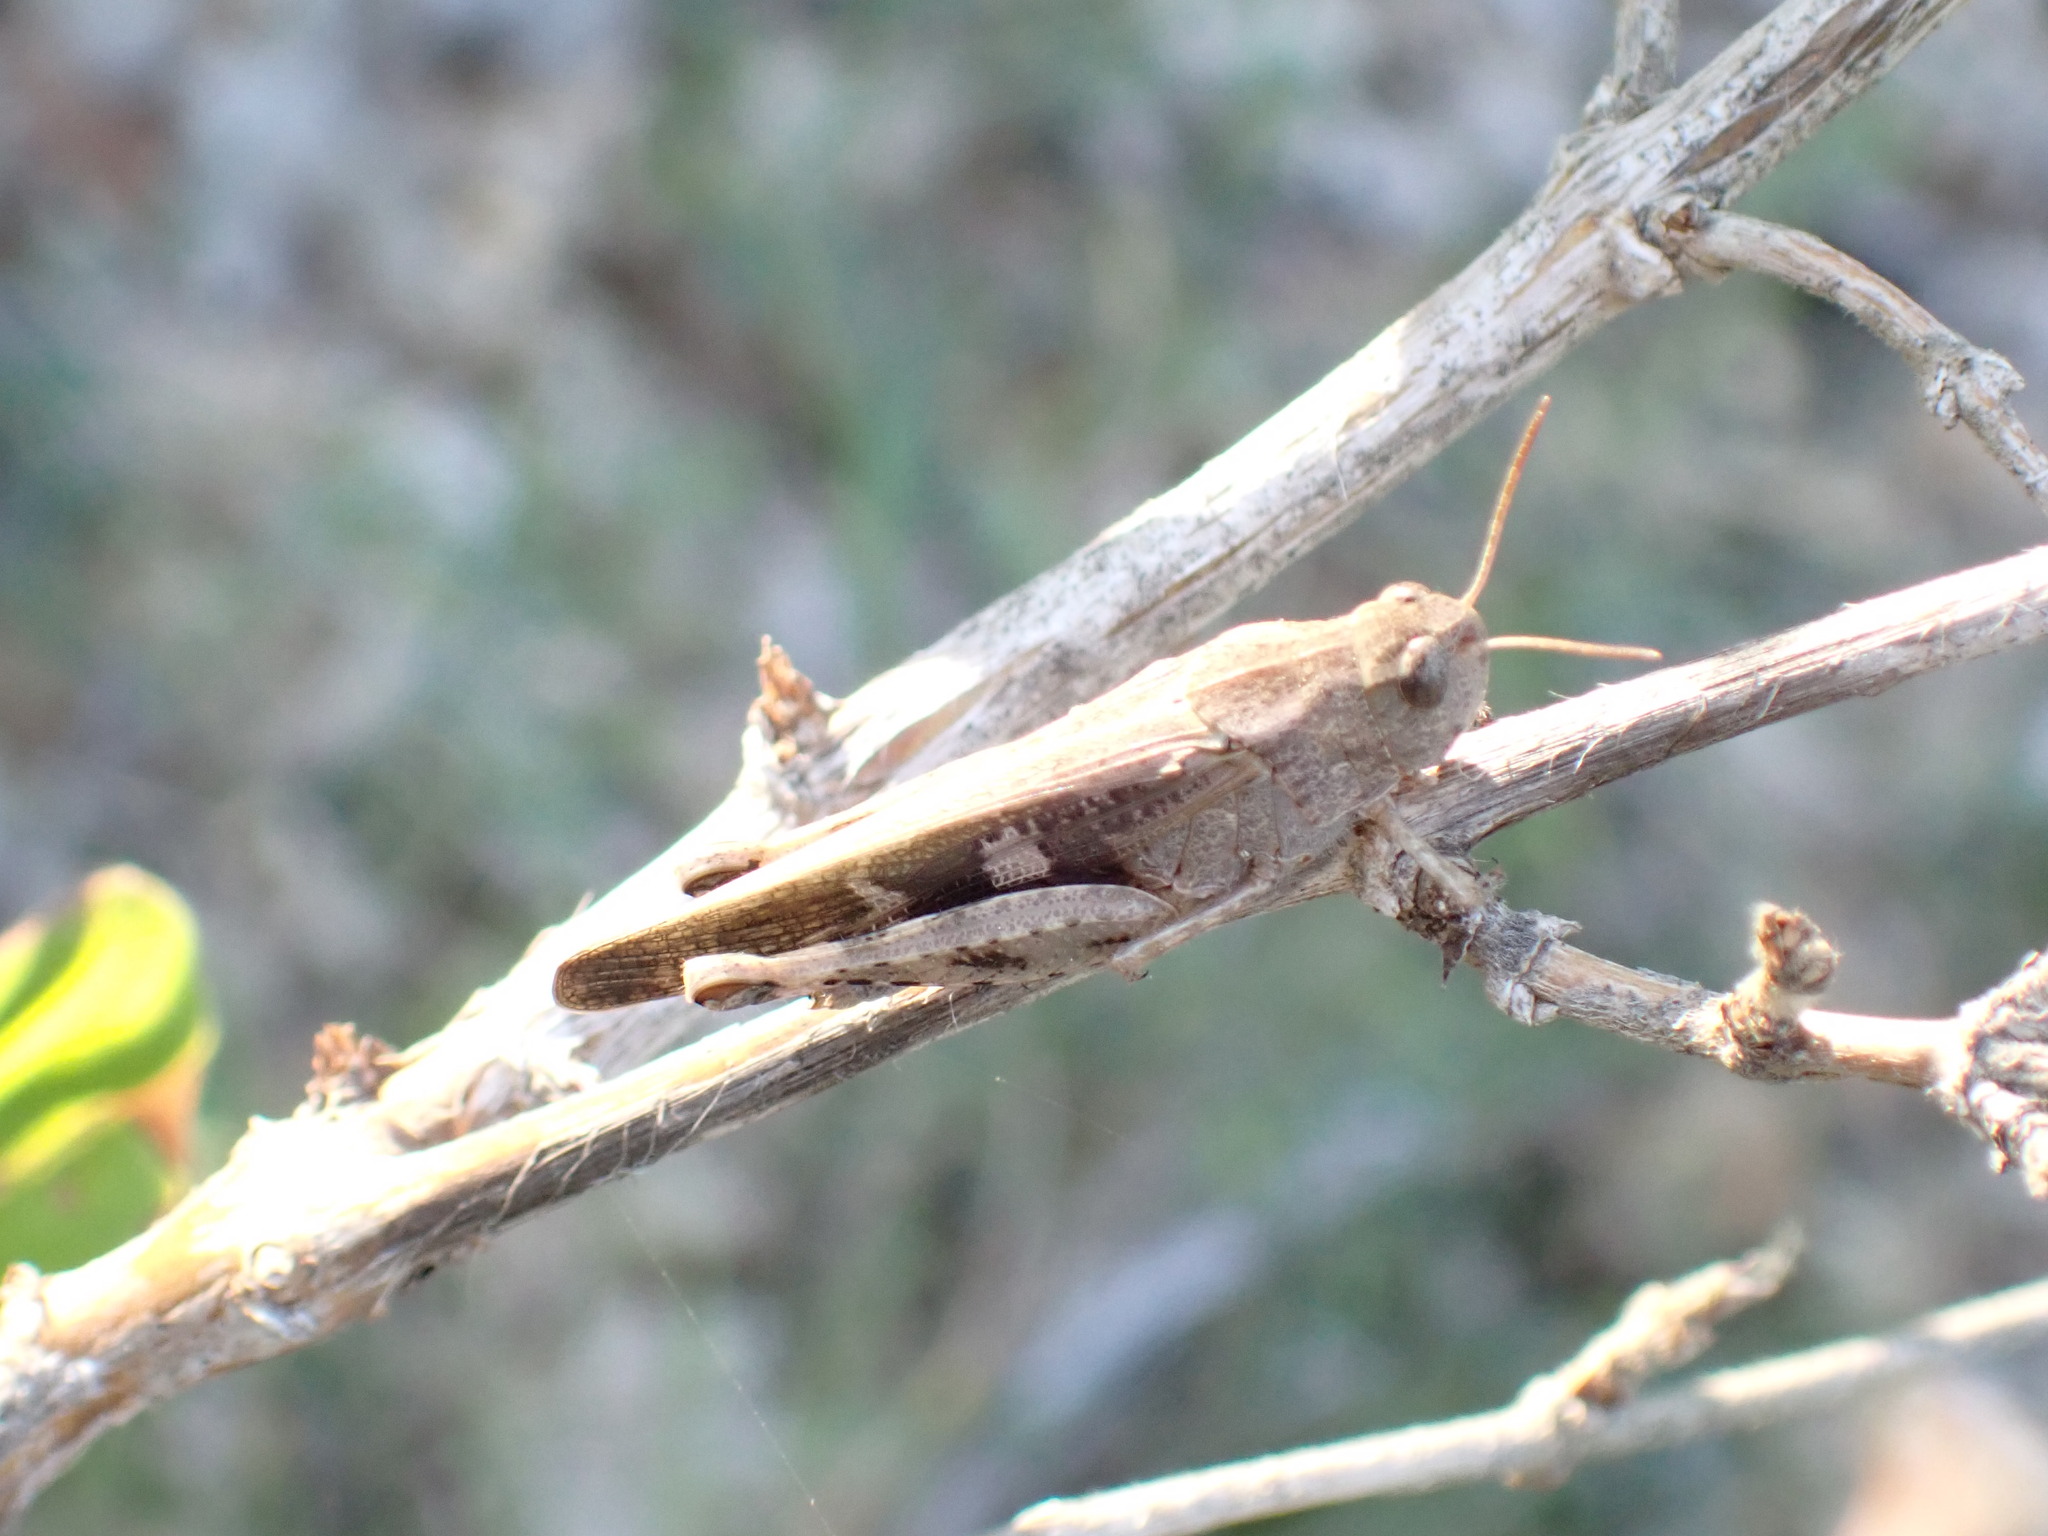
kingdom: Animalia
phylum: Arthropoda
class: Insecta
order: Orthoptera
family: Acrididae
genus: Aiolopus
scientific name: Aiolopus strepens
